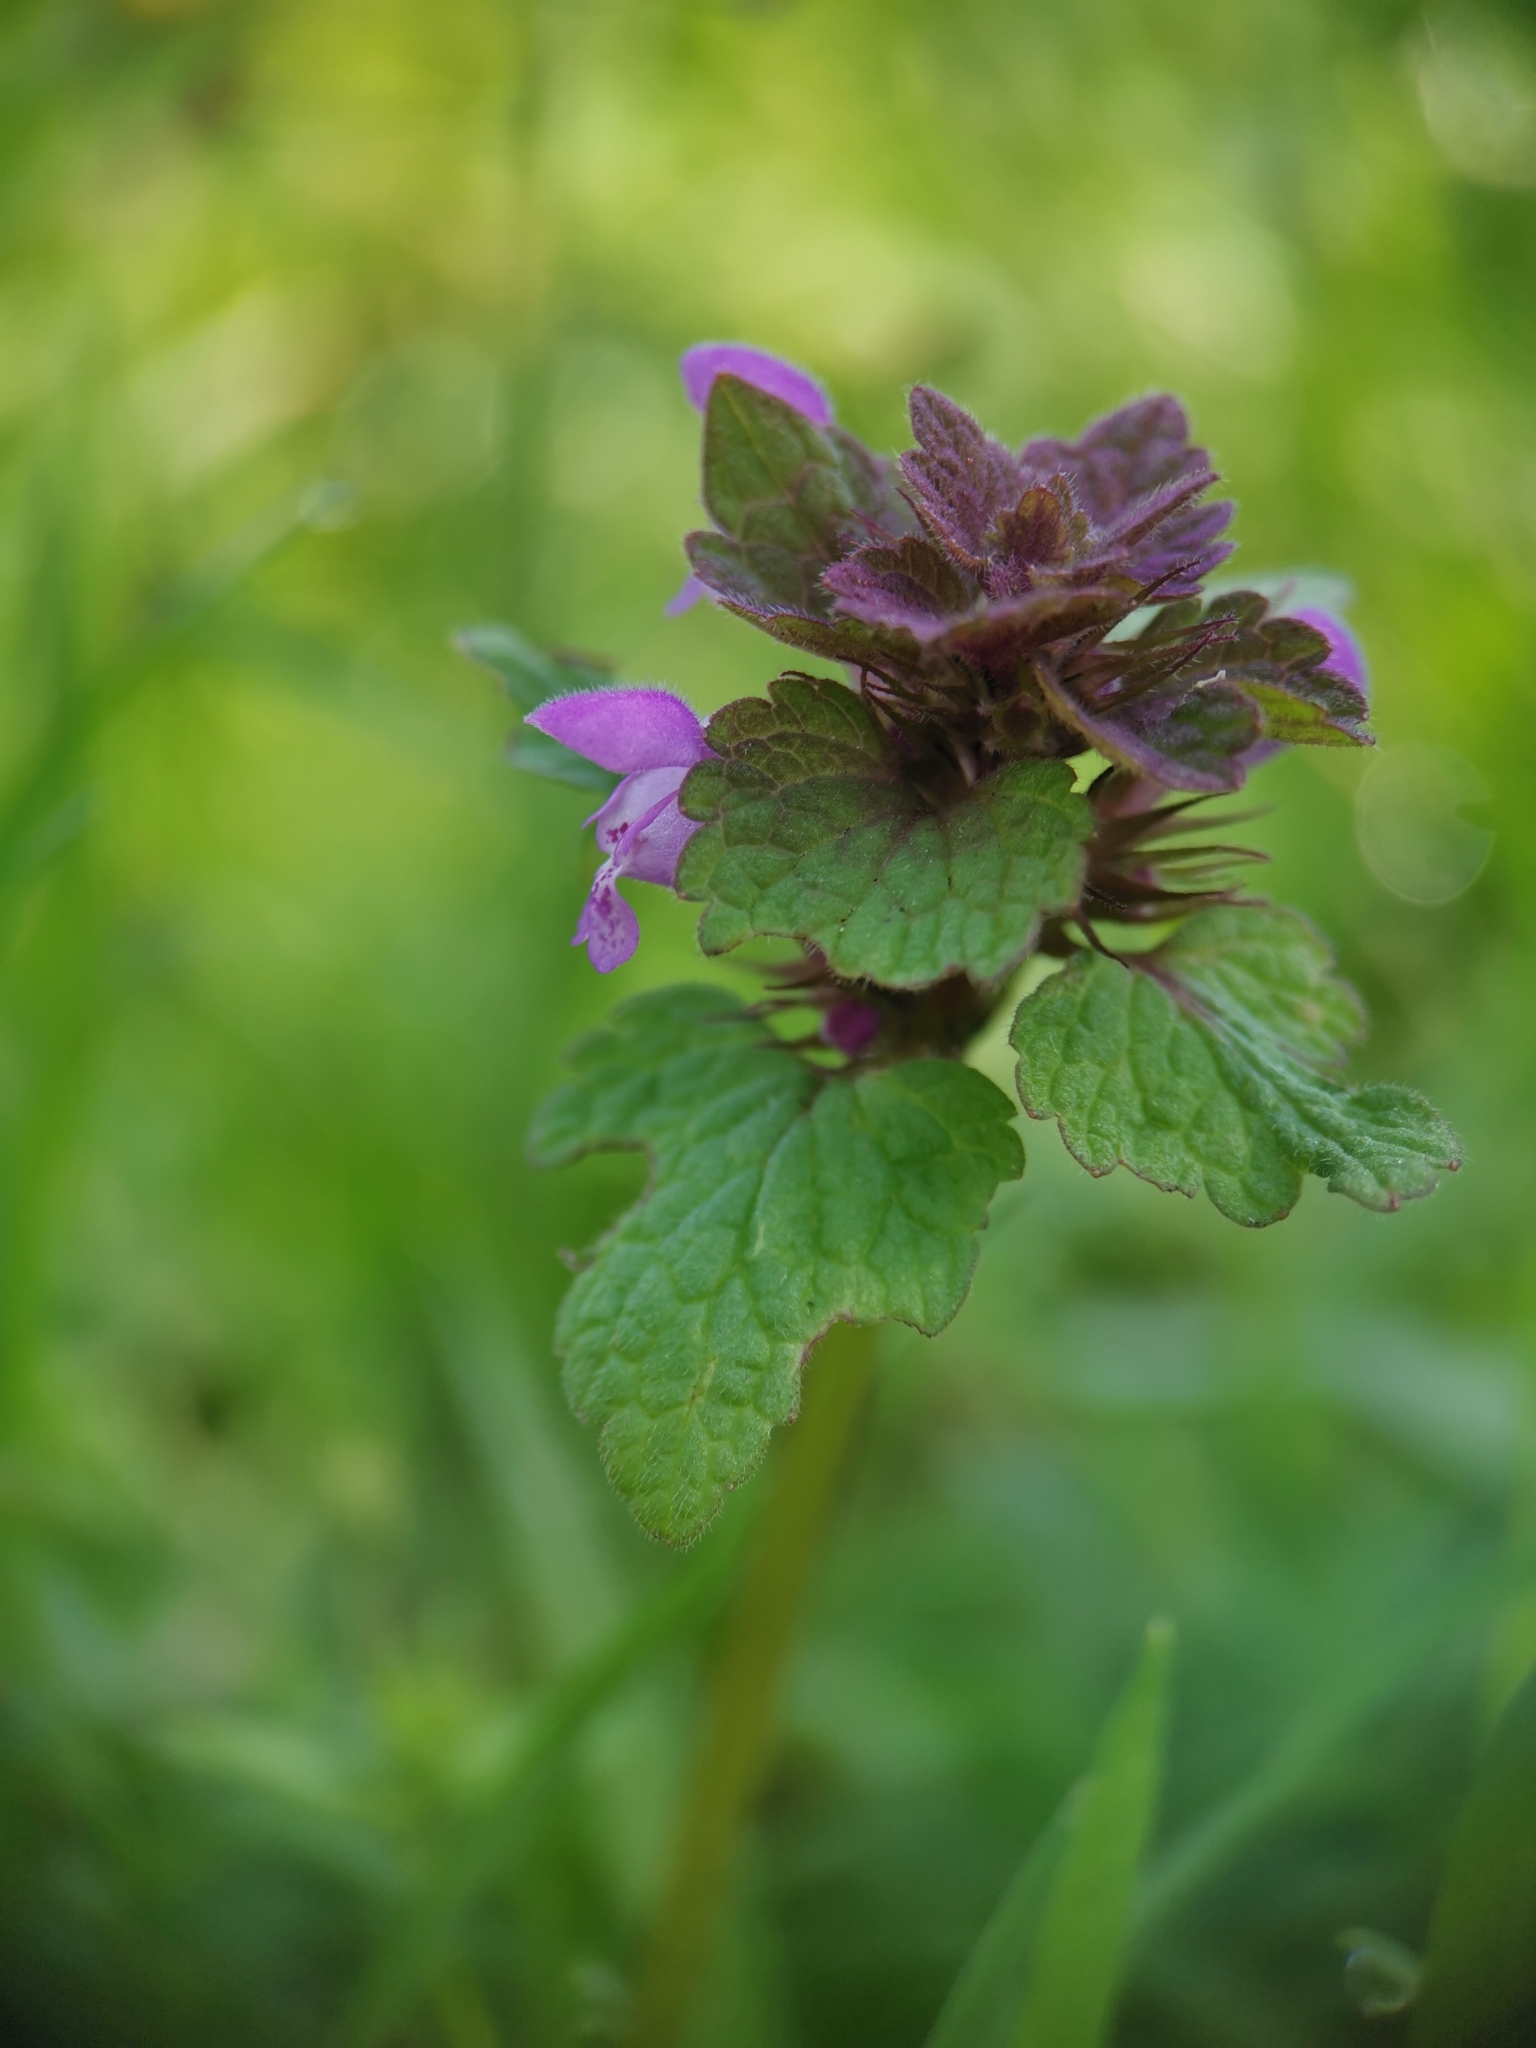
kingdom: Plantae
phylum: Tracheophyta
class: Magnoliopsida
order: Lamiales
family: Lamiaceae
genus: Lamium
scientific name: Lamium purpureum
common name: Red dead-nettle
